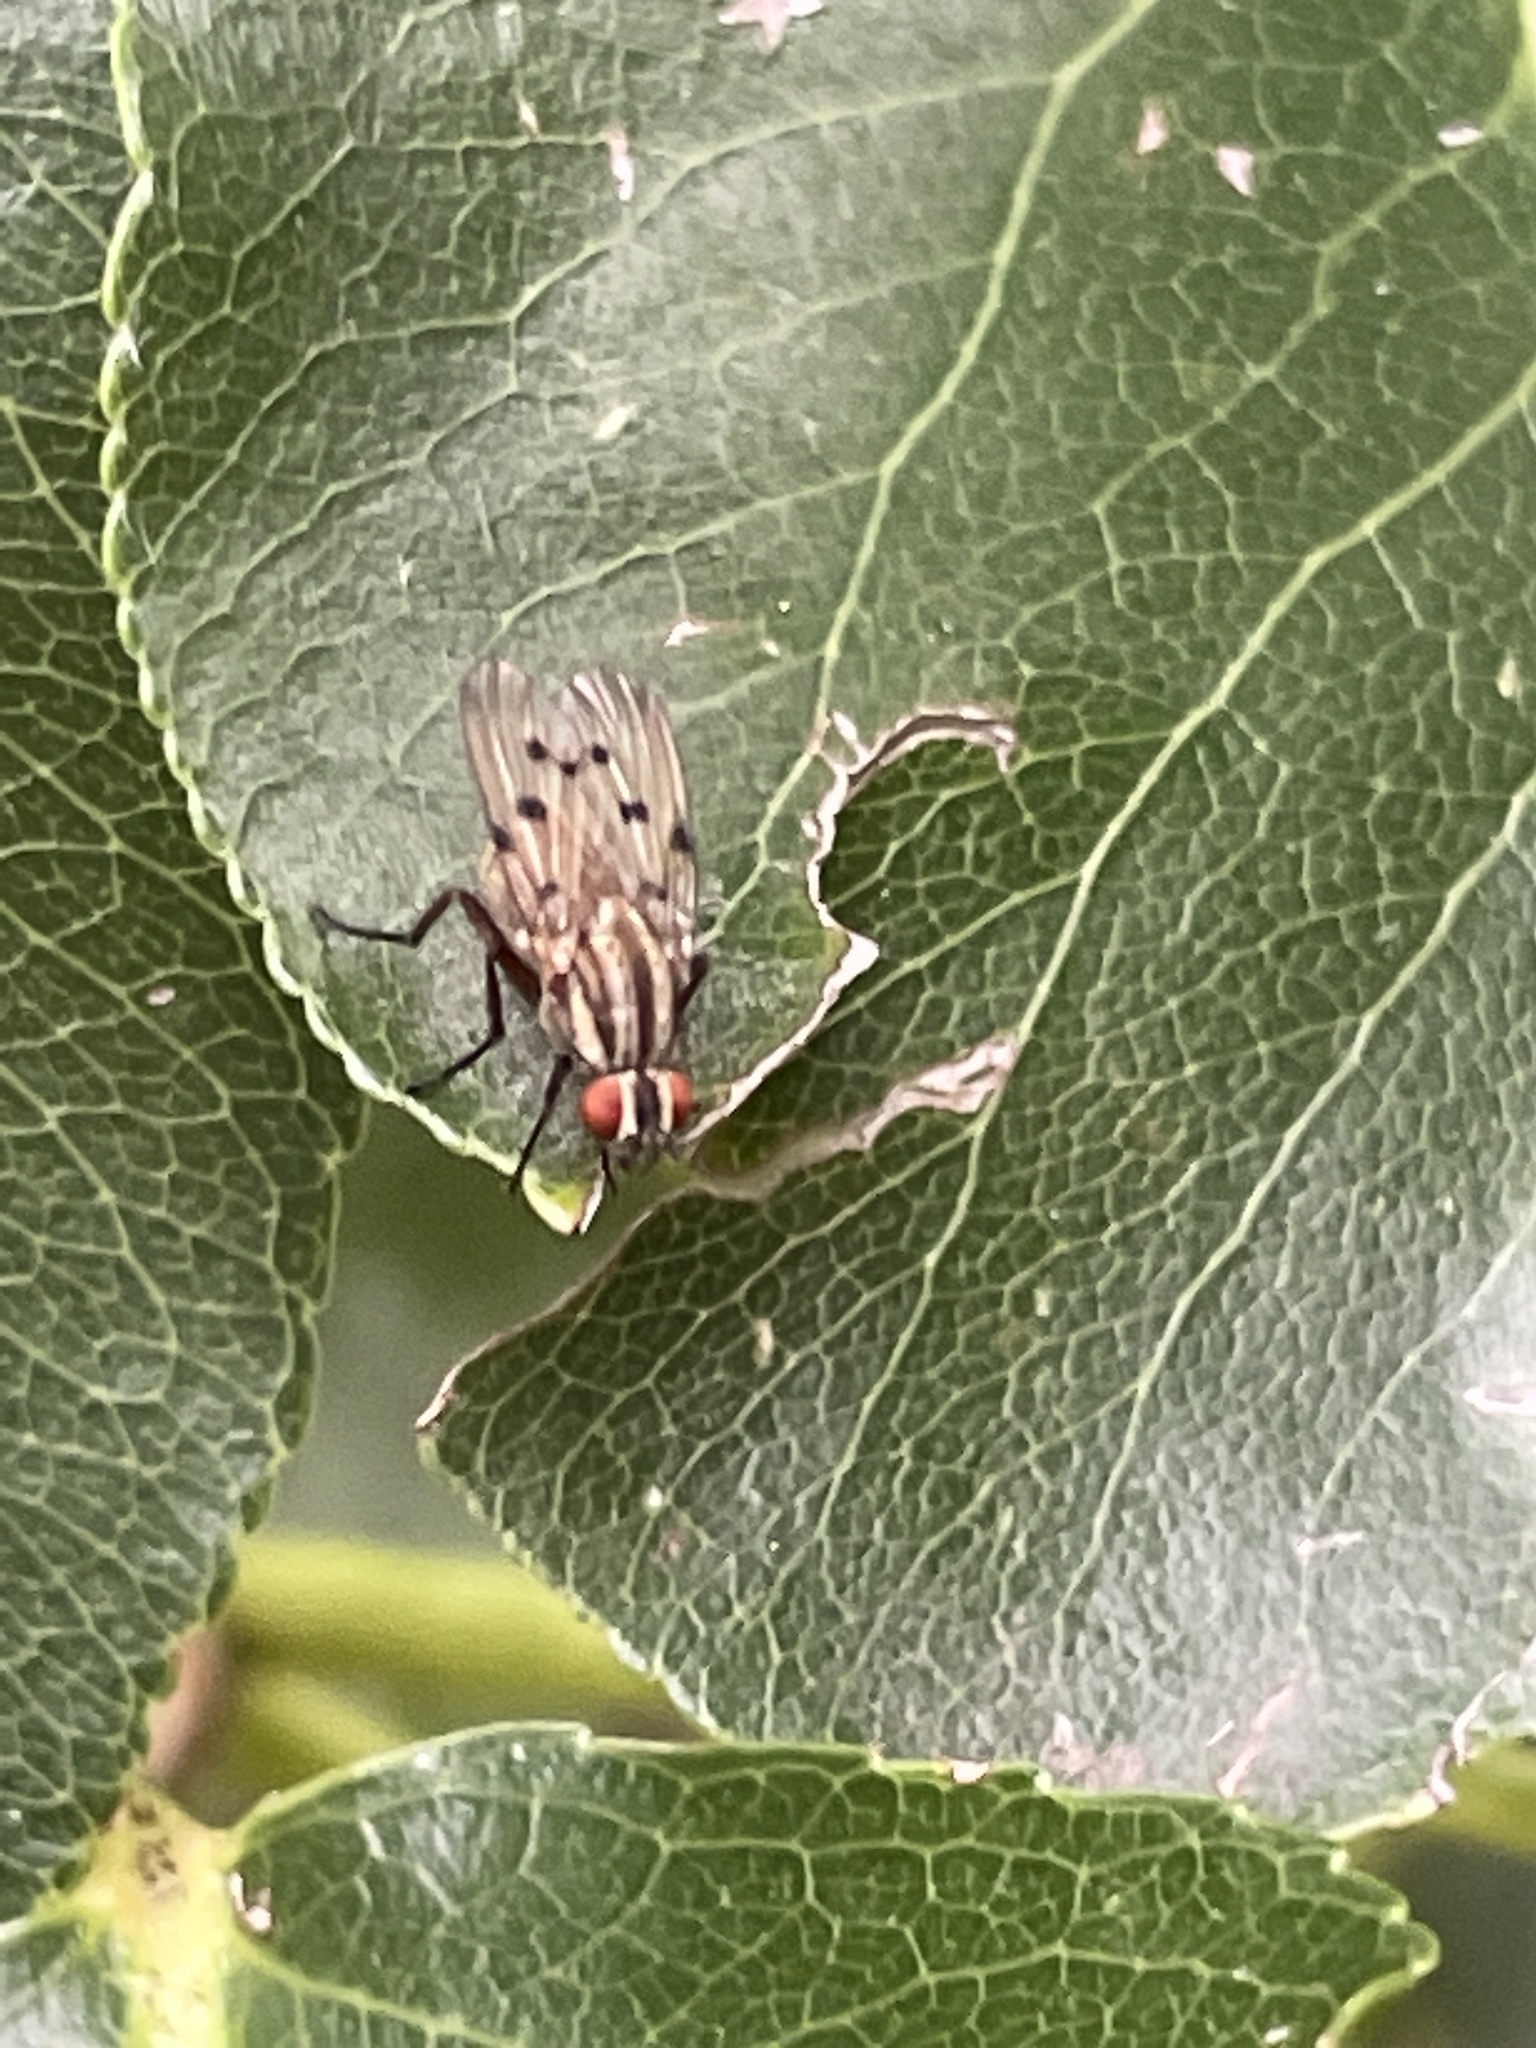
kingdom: Animalia
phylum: Arthropoda
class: Insecta
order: Diptera
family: Anthomyiidae
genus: Anthomyia
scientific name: Anthomyia punctipennis
